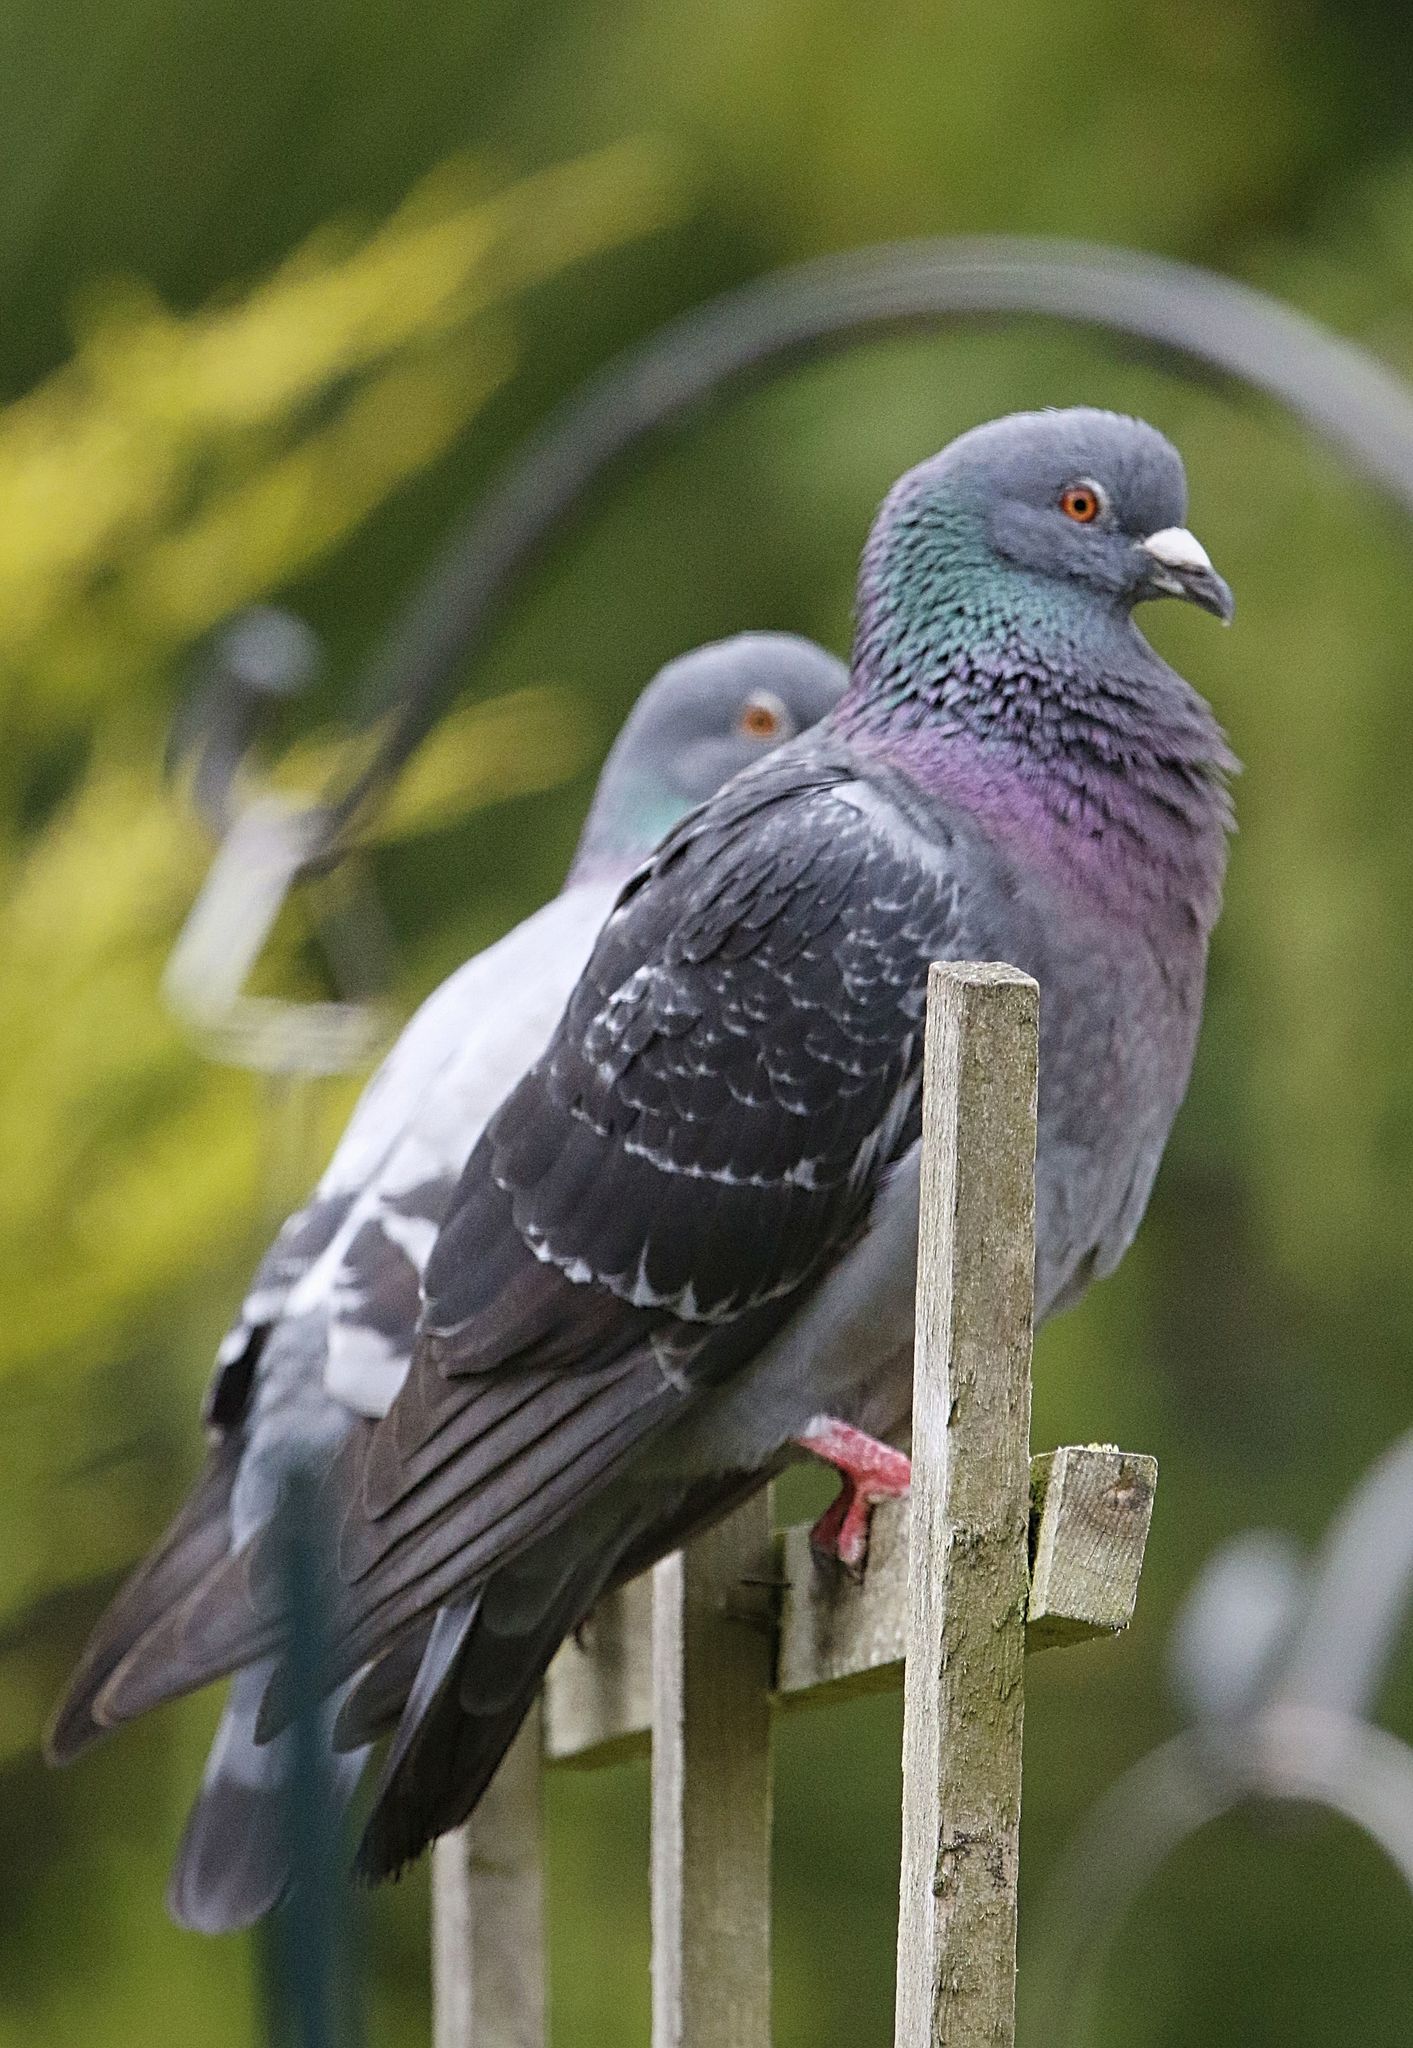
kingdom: Animalia
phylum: Chordata
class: Aves
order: Columbiformes
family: Columbidae
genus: Columba
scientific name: Columba livia
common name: Rock pigeon
